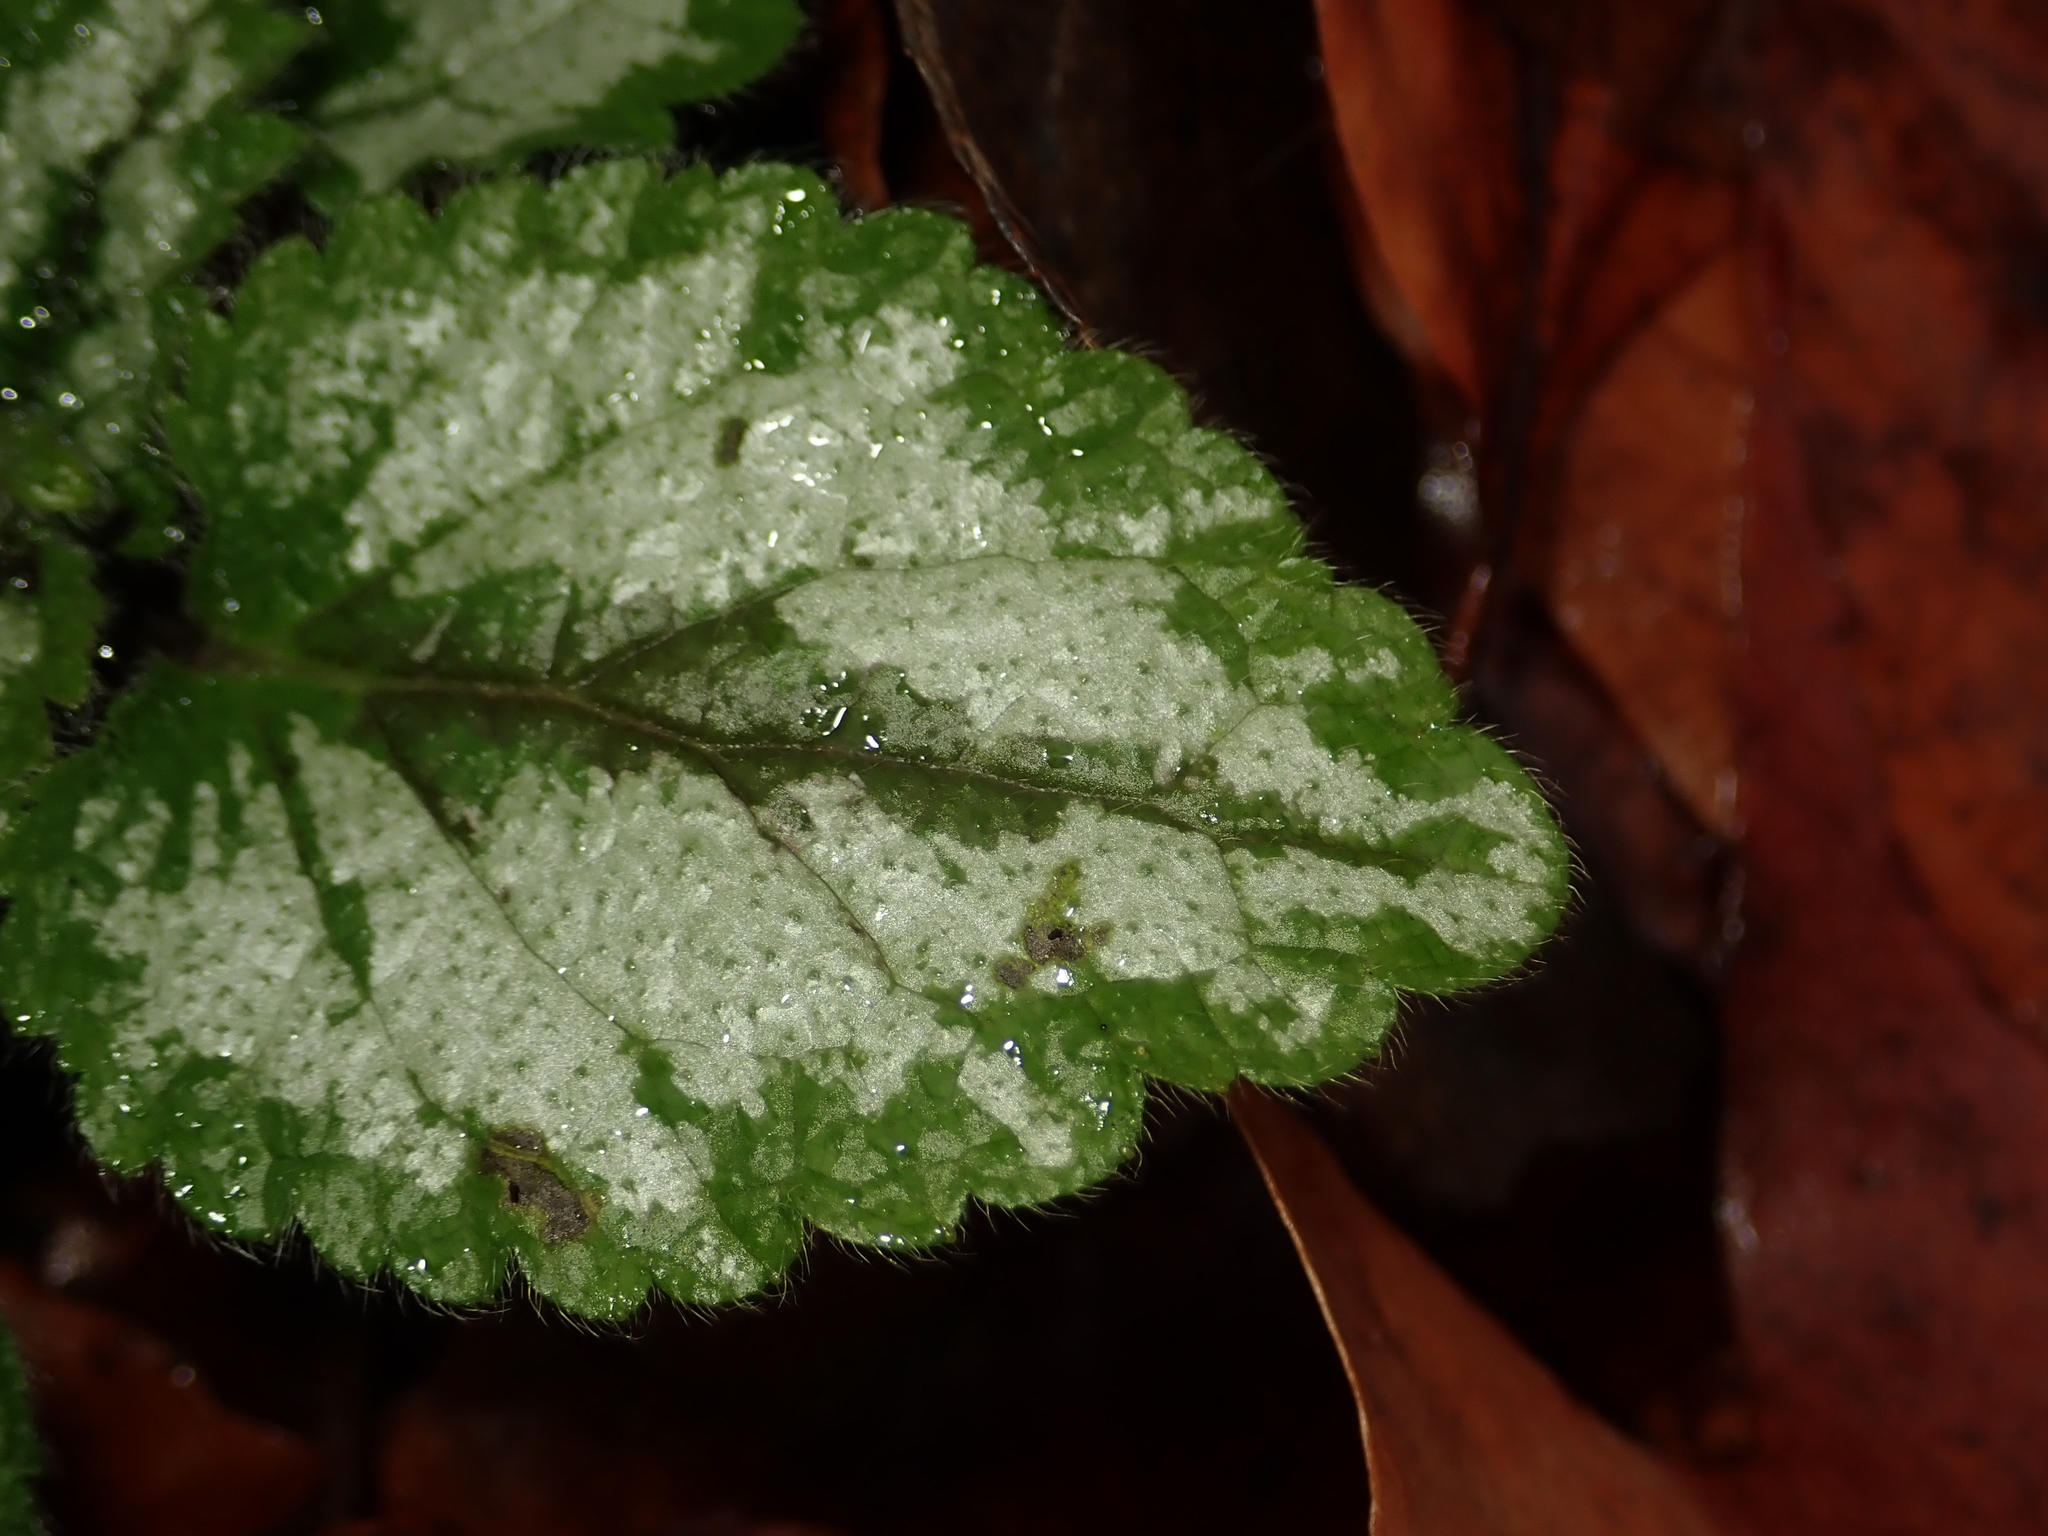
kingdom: Plantae
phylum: Tracheophyta
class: Magnoliopsida
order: Lamiales
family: Lamiaceae
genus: Lamium
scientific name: Lamium galeobdolon
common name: Yellow archangel
